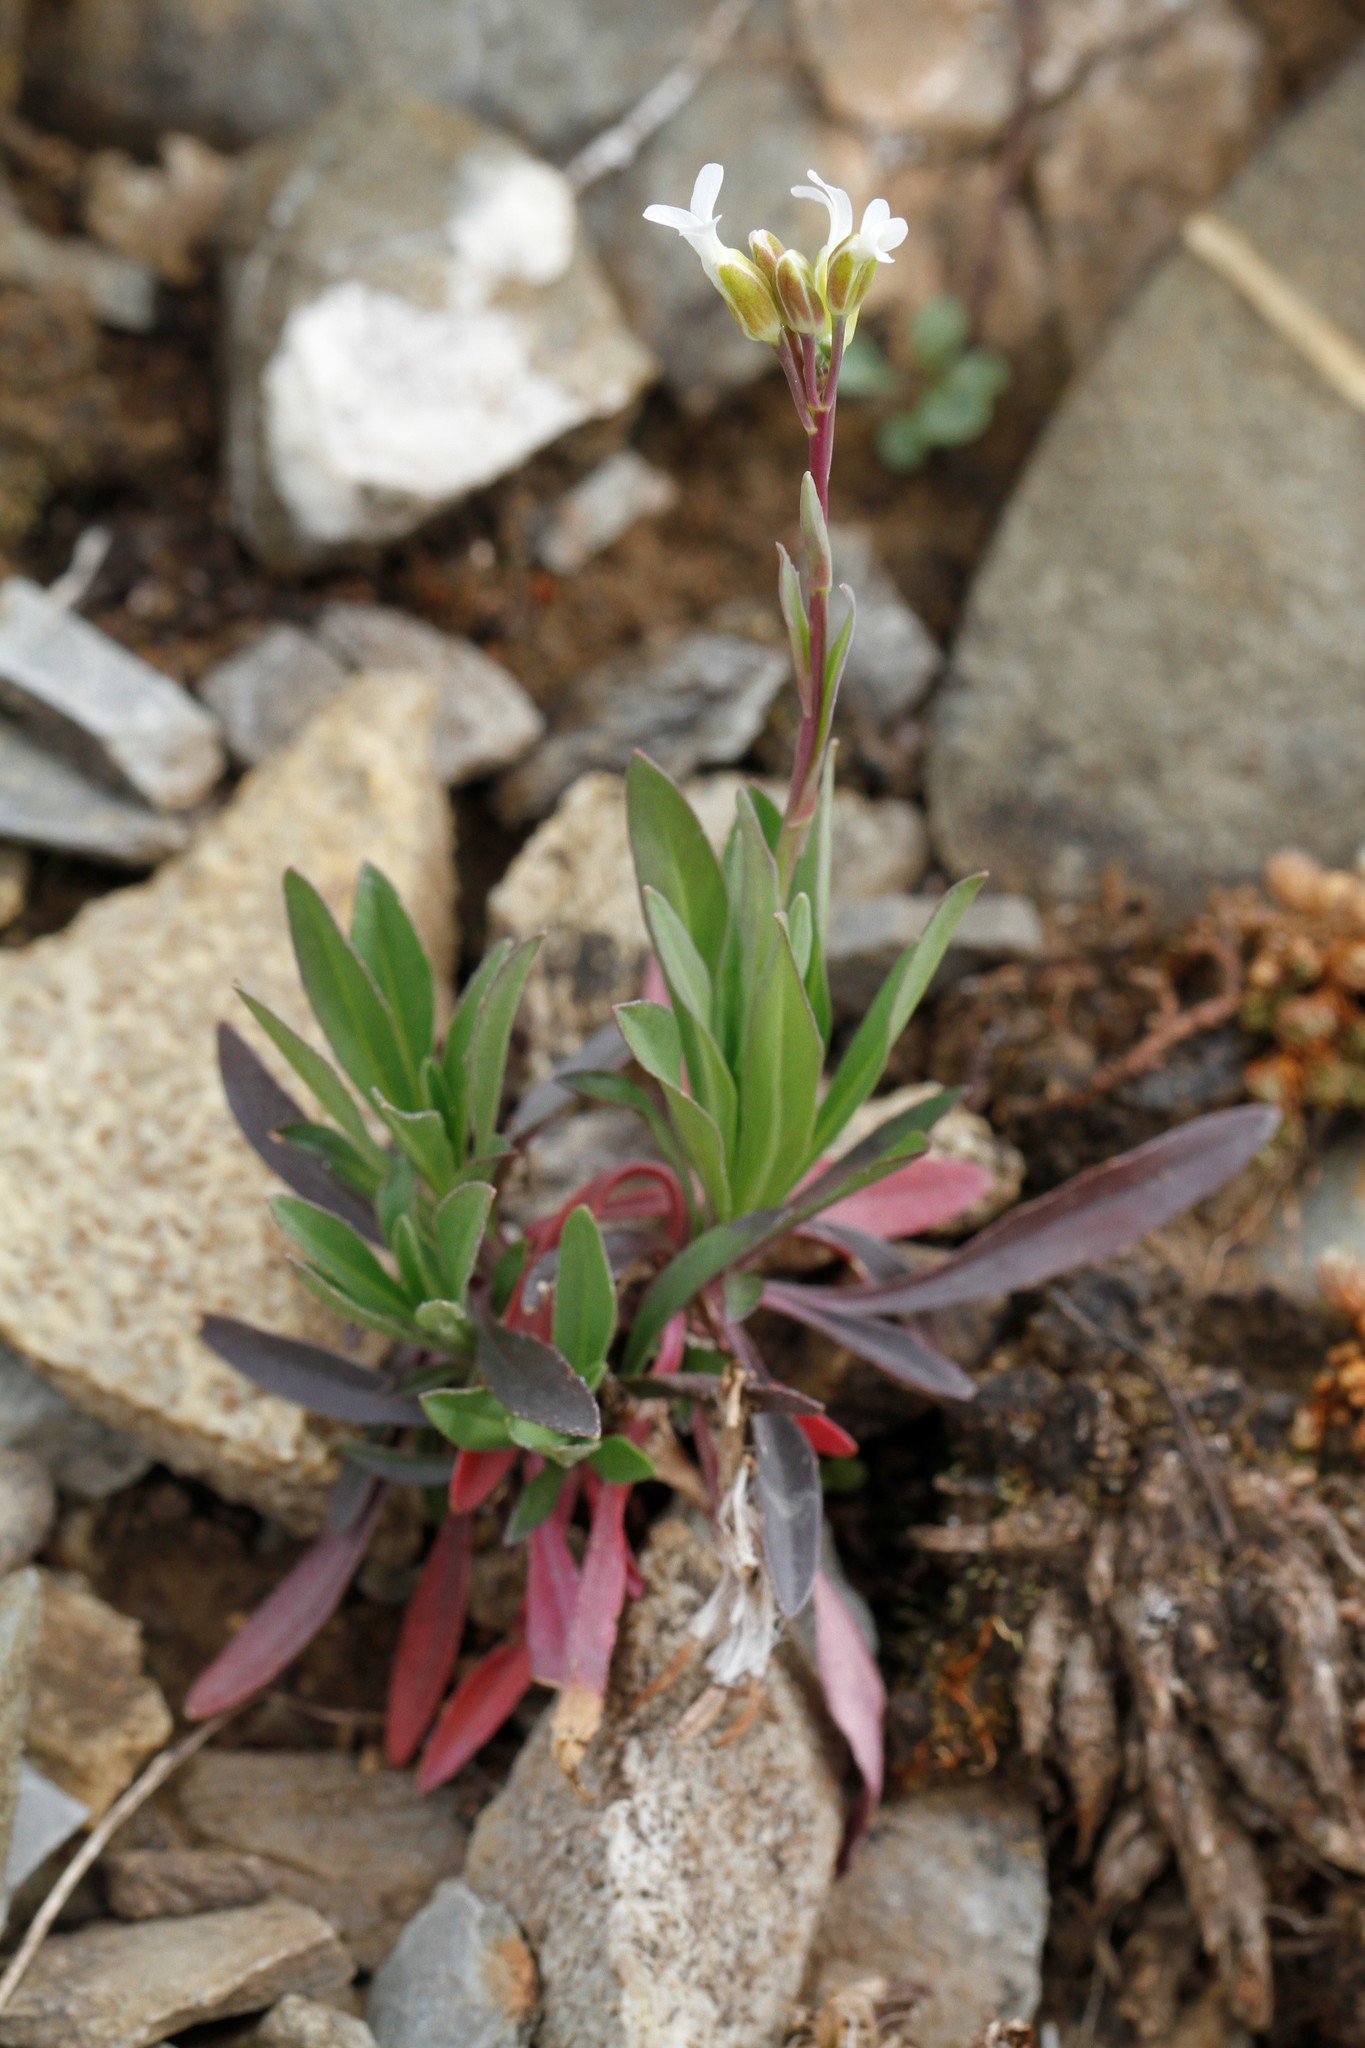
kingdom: Plantae
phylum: Tracheophyta
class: Magnoliopsida
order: Brassicales
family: Brassicaceae
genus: Boechera
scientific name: Boechera stricta
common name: Canadian rockcress
